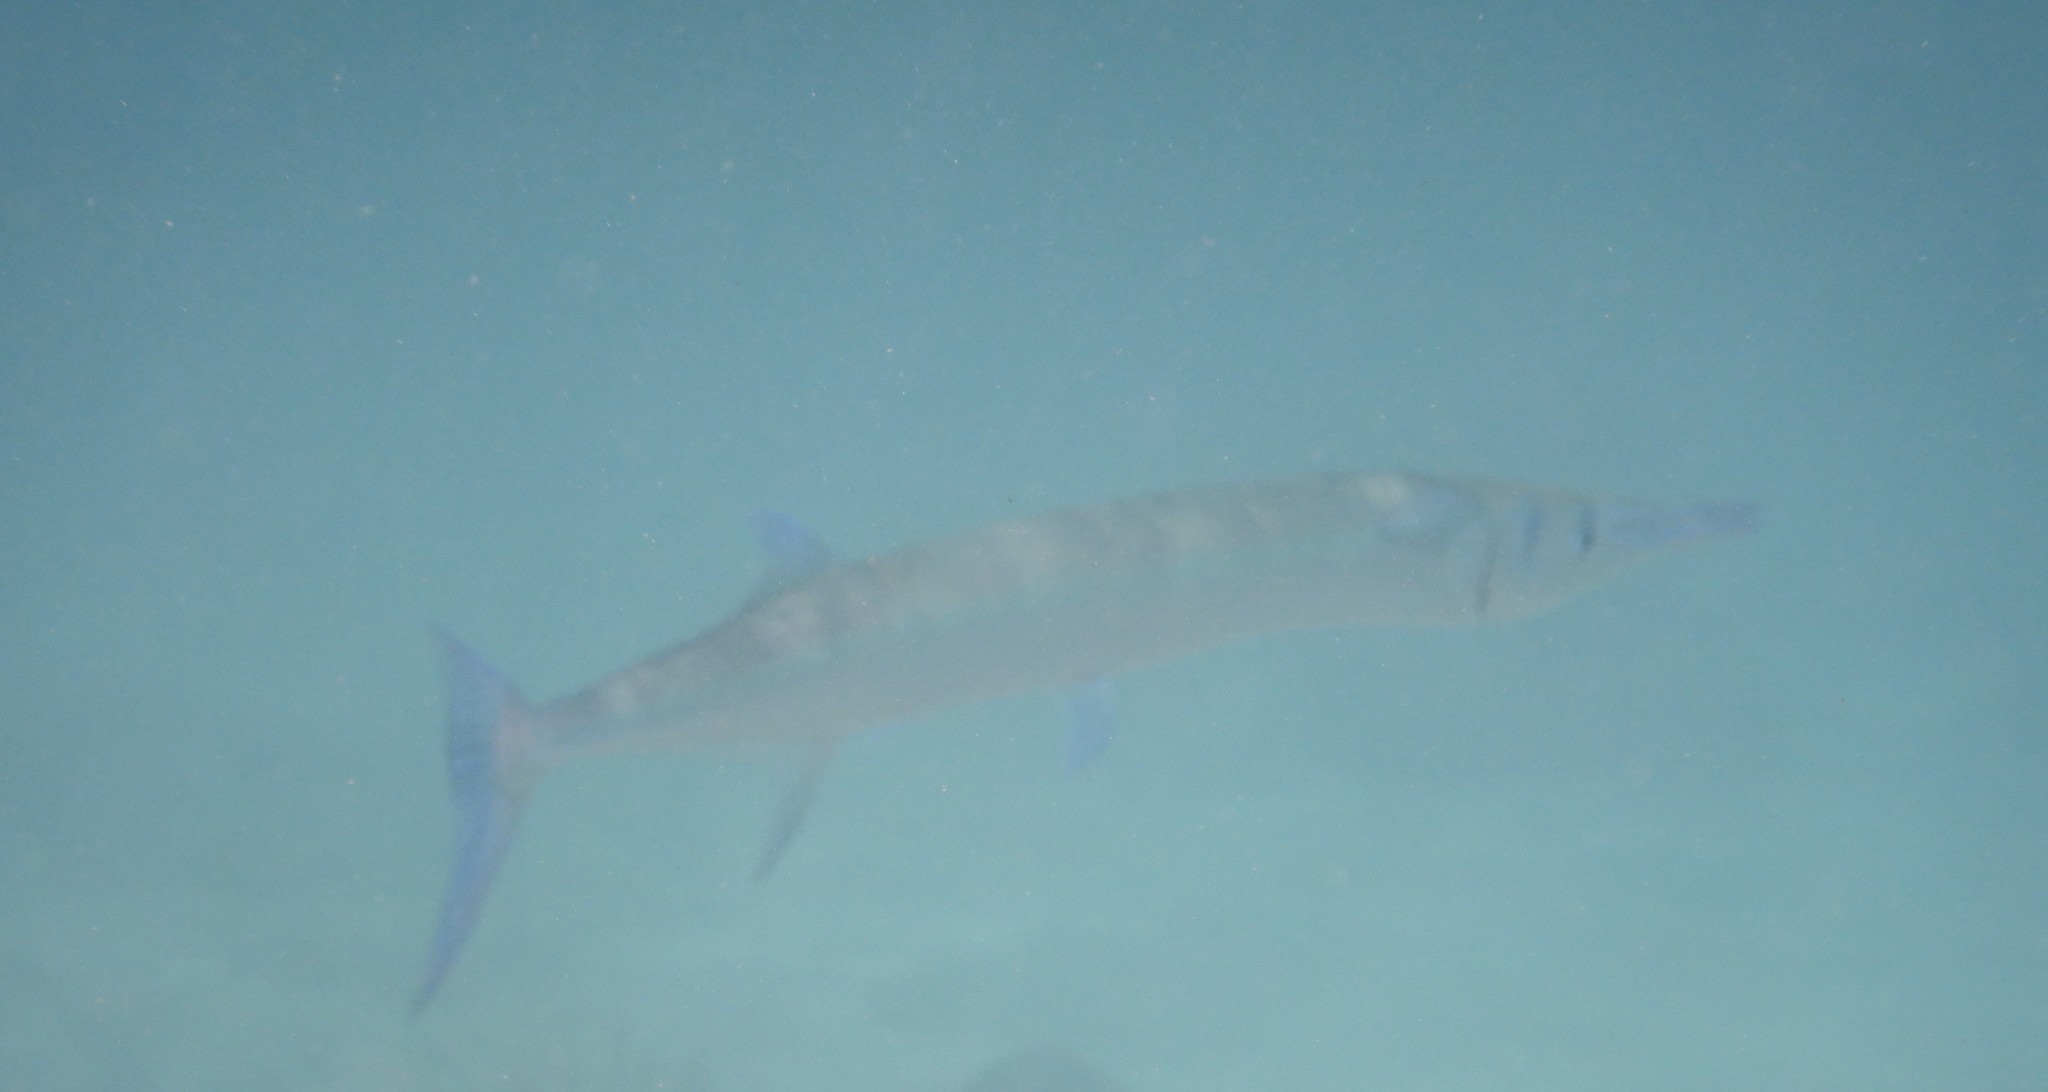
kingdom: Animalia
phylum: Chordata
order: Beloniformes
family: Belonidae
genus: Tylosurus
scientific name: Tylosurus crocodilus
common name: Houndfish
